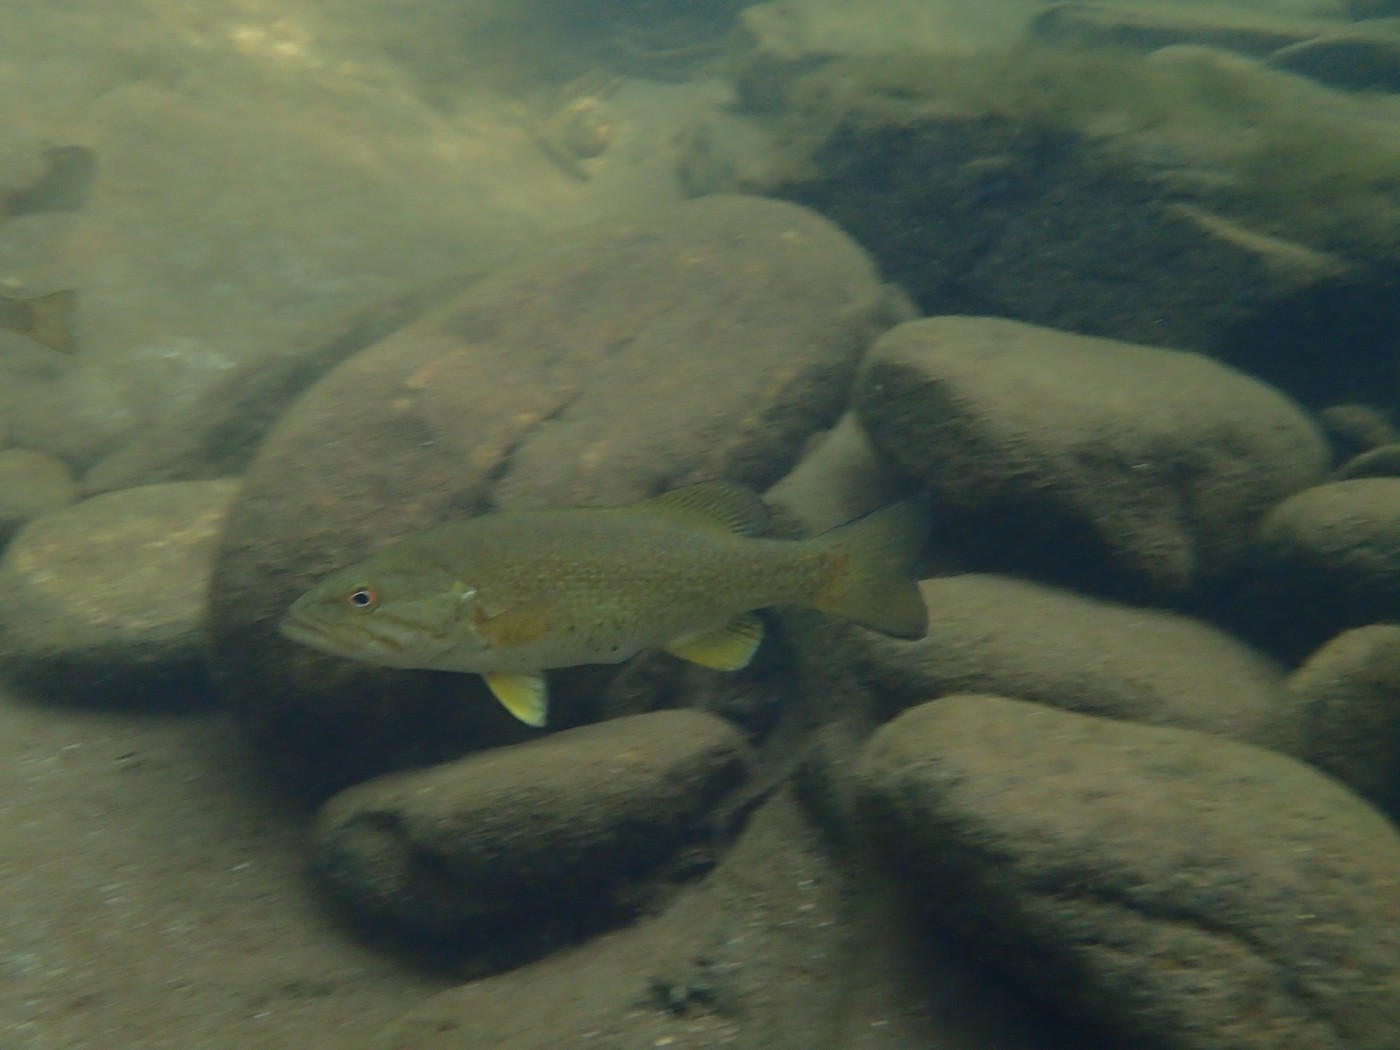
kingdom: Animalia
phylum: Chordata
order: Perciformes
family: Centrarchidae
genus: Micropterus
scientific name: Micropterus dolomieu
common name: Smallmouth bass
